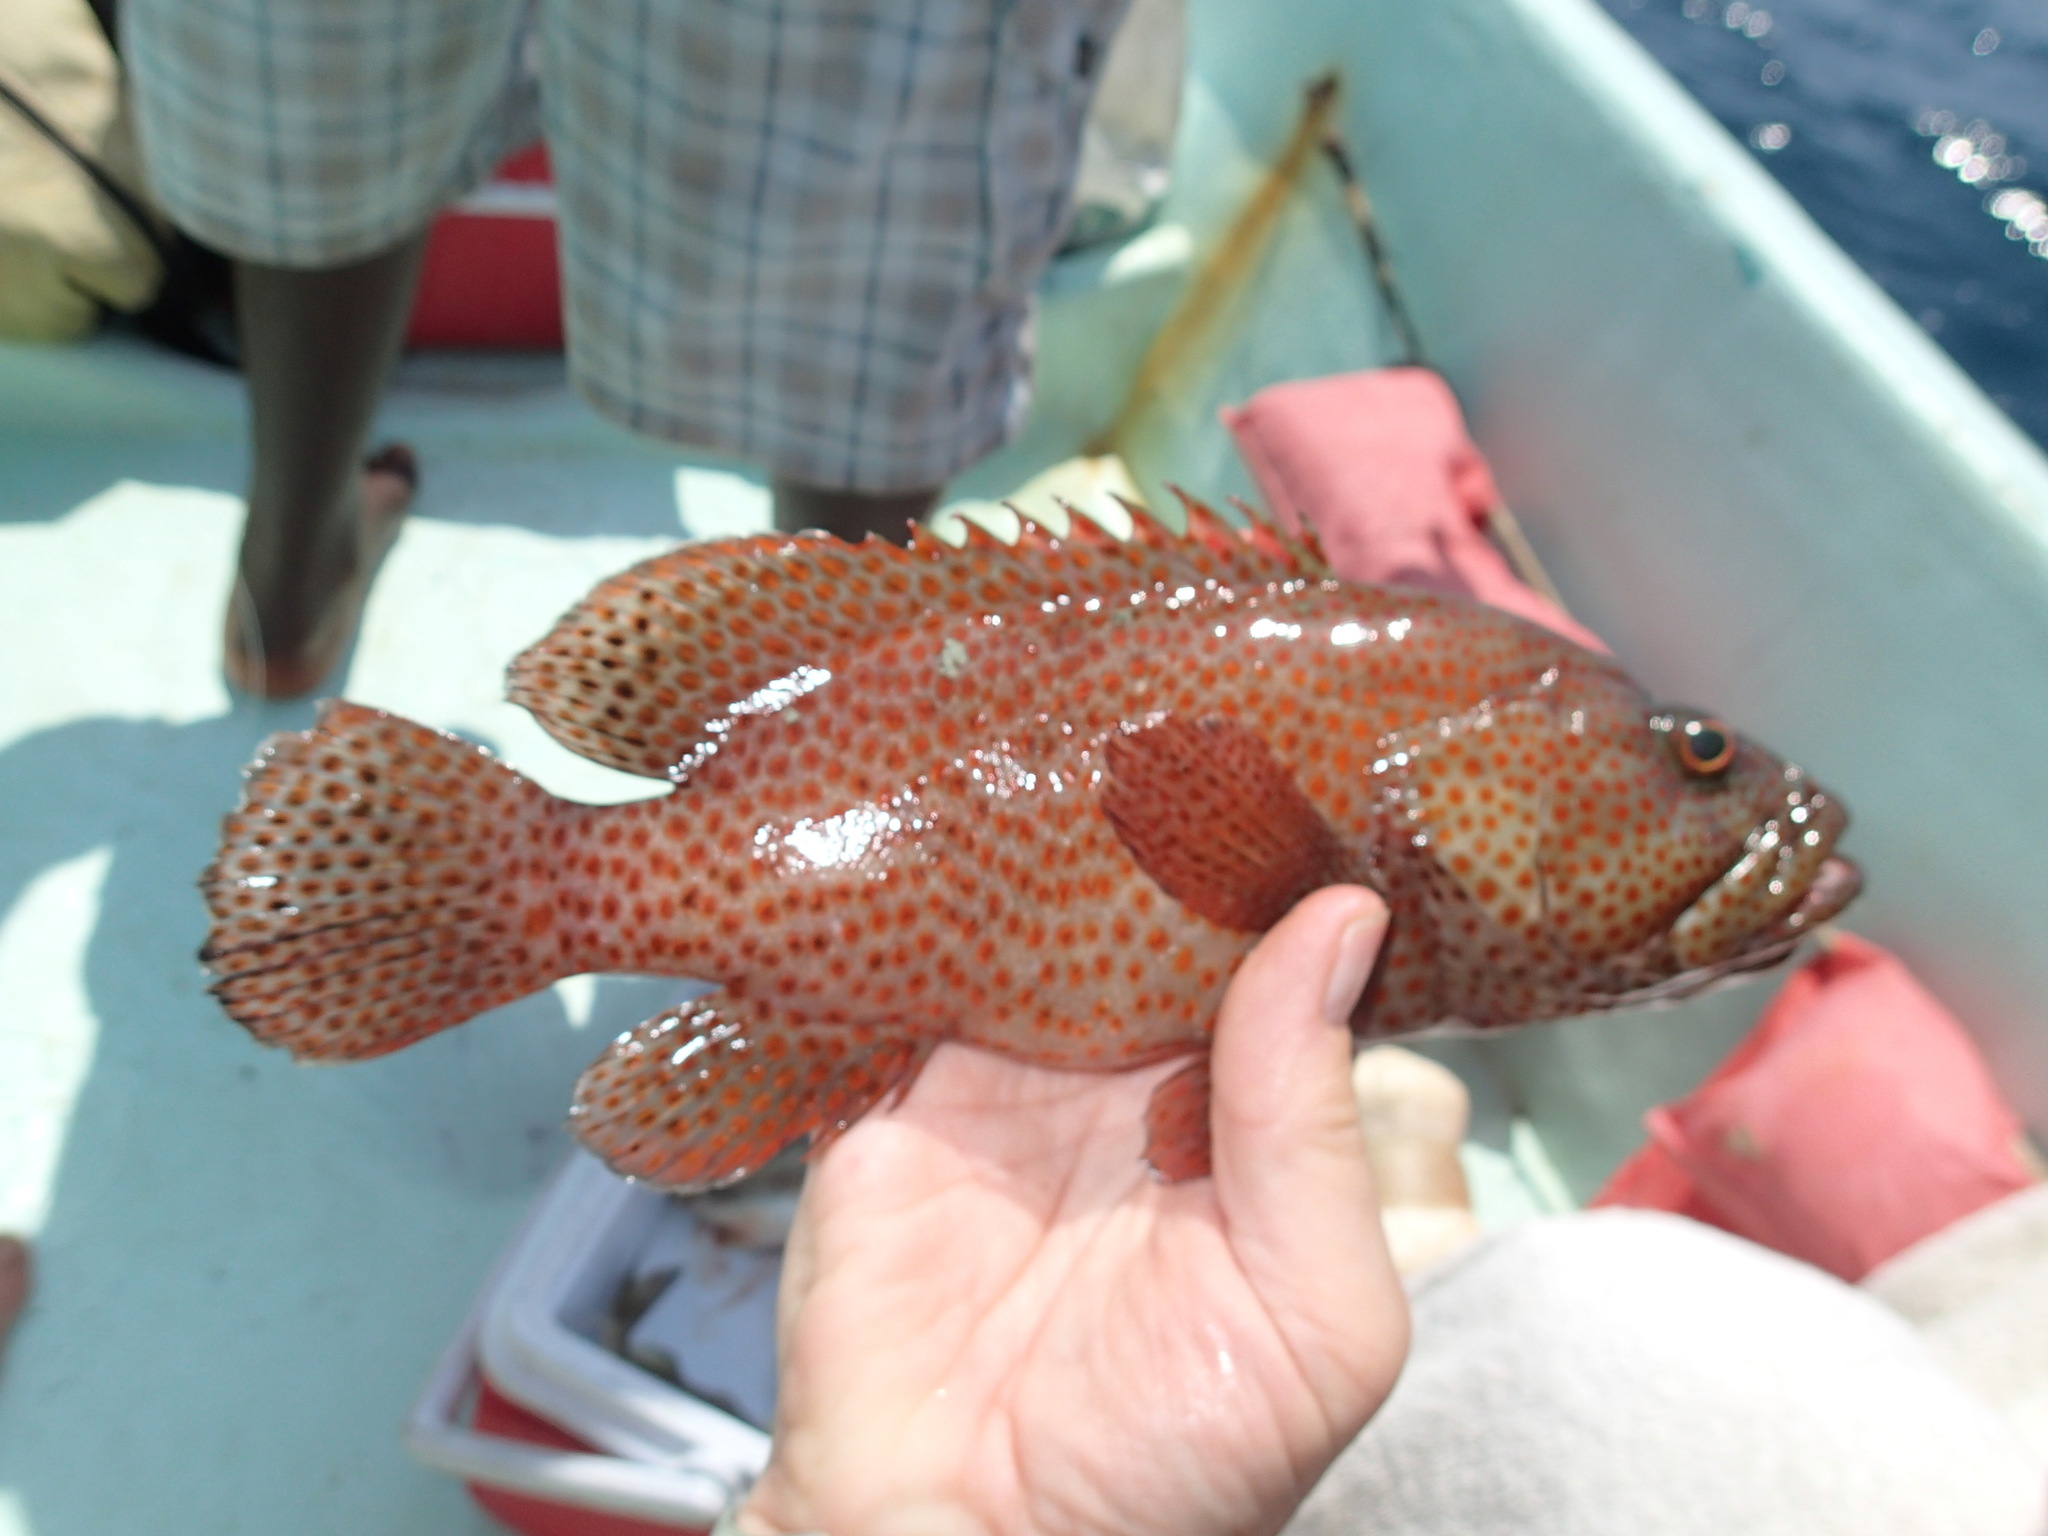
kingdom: Animalia
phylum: Chordata
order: Perciformes
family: Serranidae
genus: Cephalopholis
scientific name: Cephalopholis cruentata
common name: Graysby
